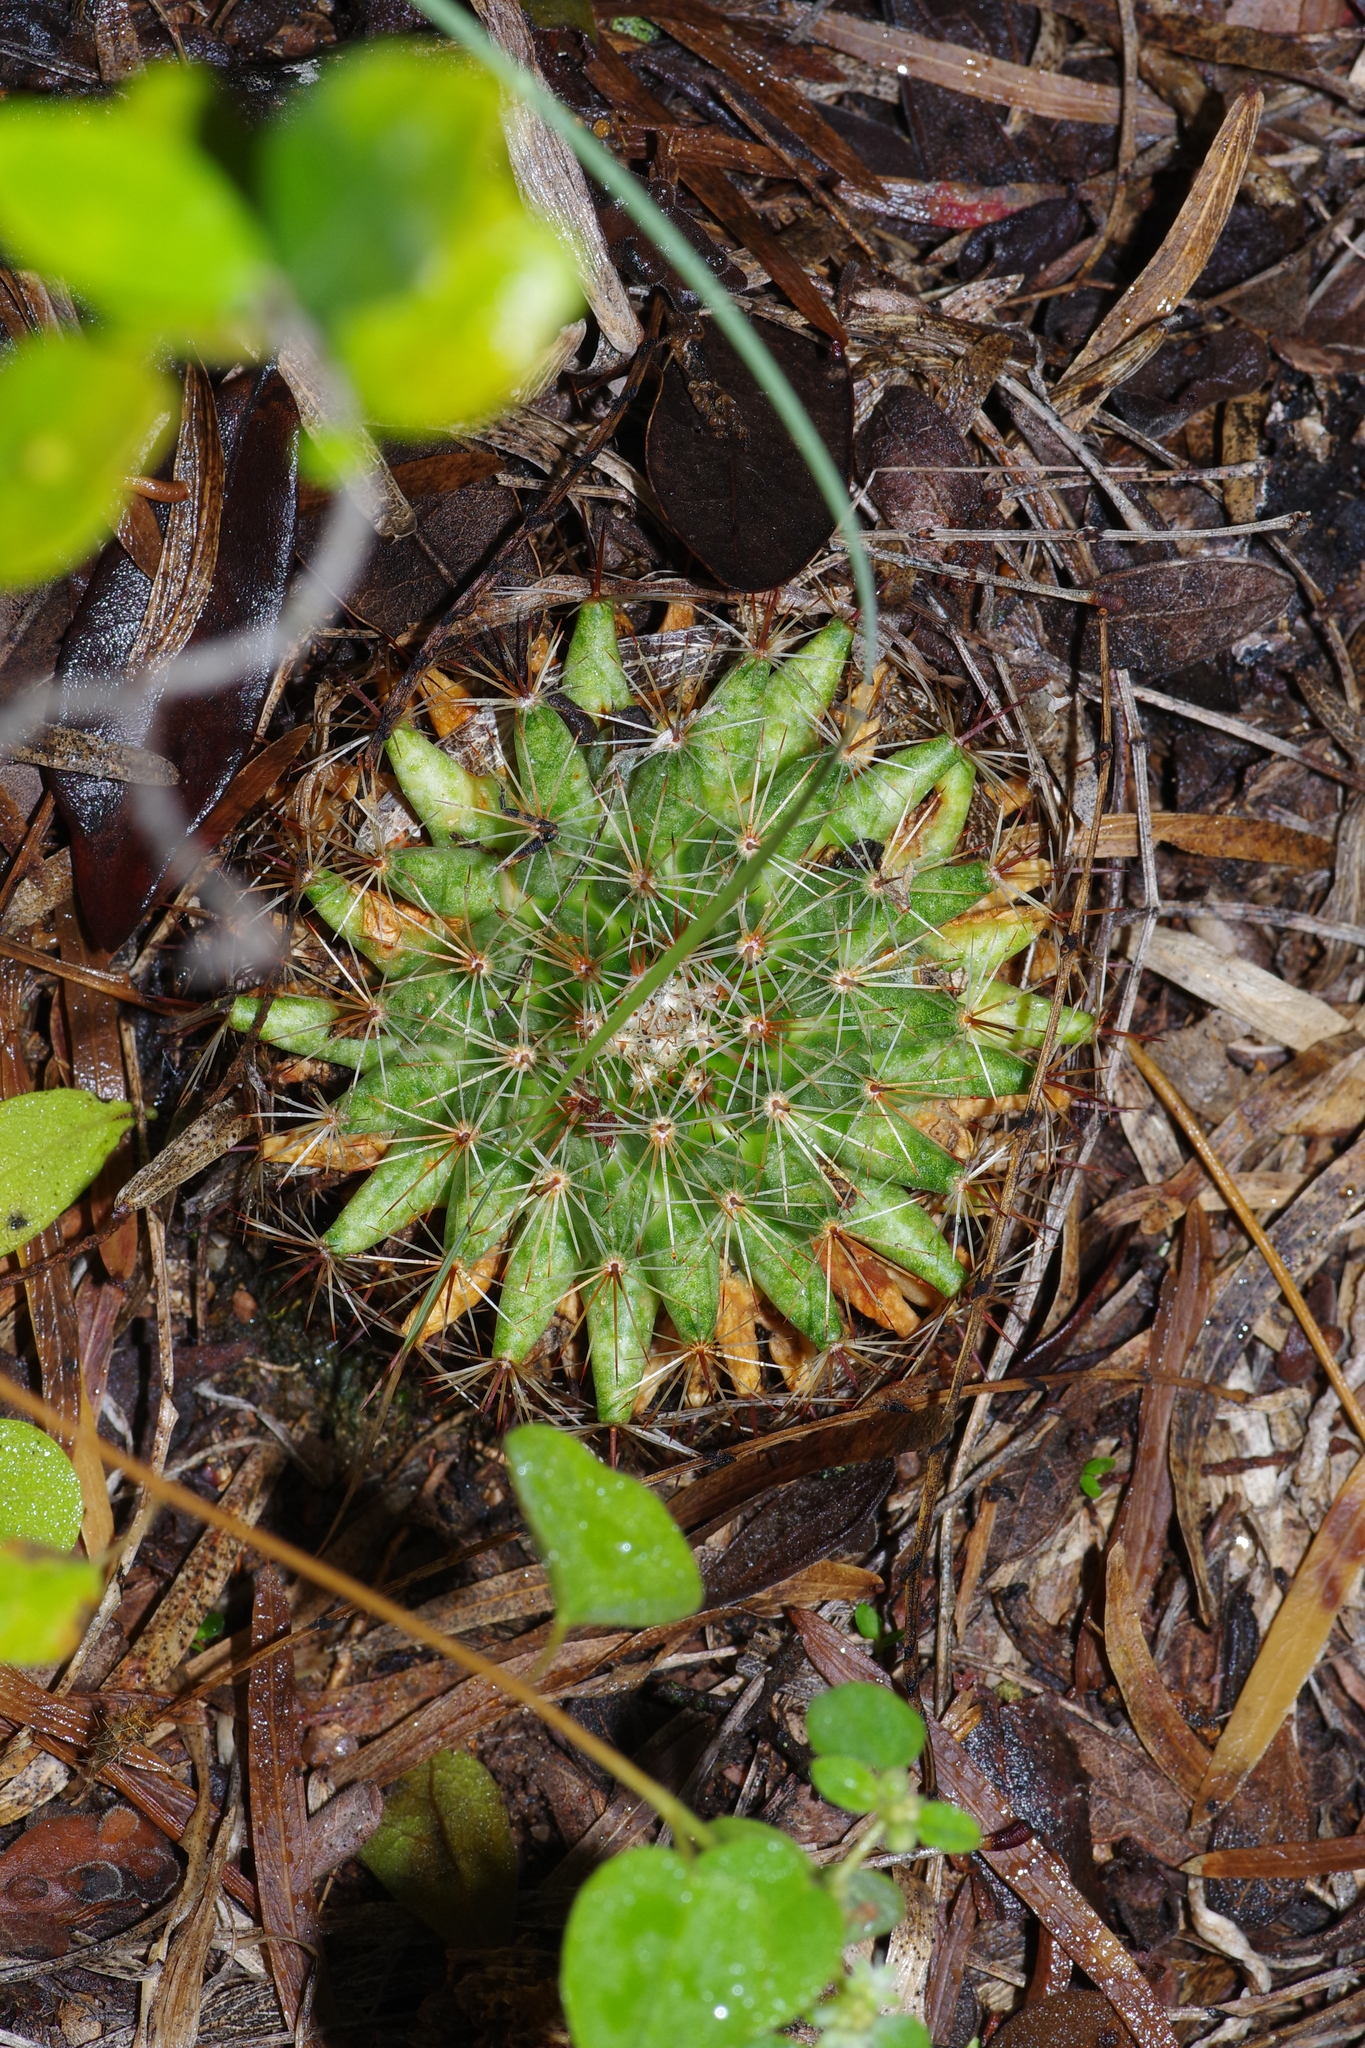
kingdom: Plantae
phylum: Tracheophyta
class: Magnoliopsida
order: Caryophyllales
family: Cactaceae
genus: Mammillaria
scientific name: Mammillaria heyderi
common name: Little nipple cactus
